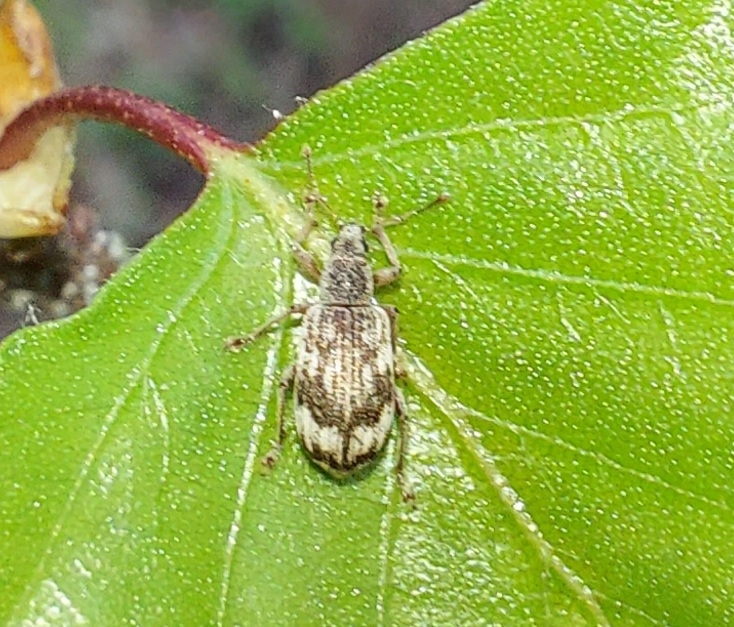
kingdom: Animalia
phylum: Arthropoda
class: Insecta
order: Coleoptera
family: Curculionidae
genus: Polydrusus
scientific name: Polydrusus tereticollis
